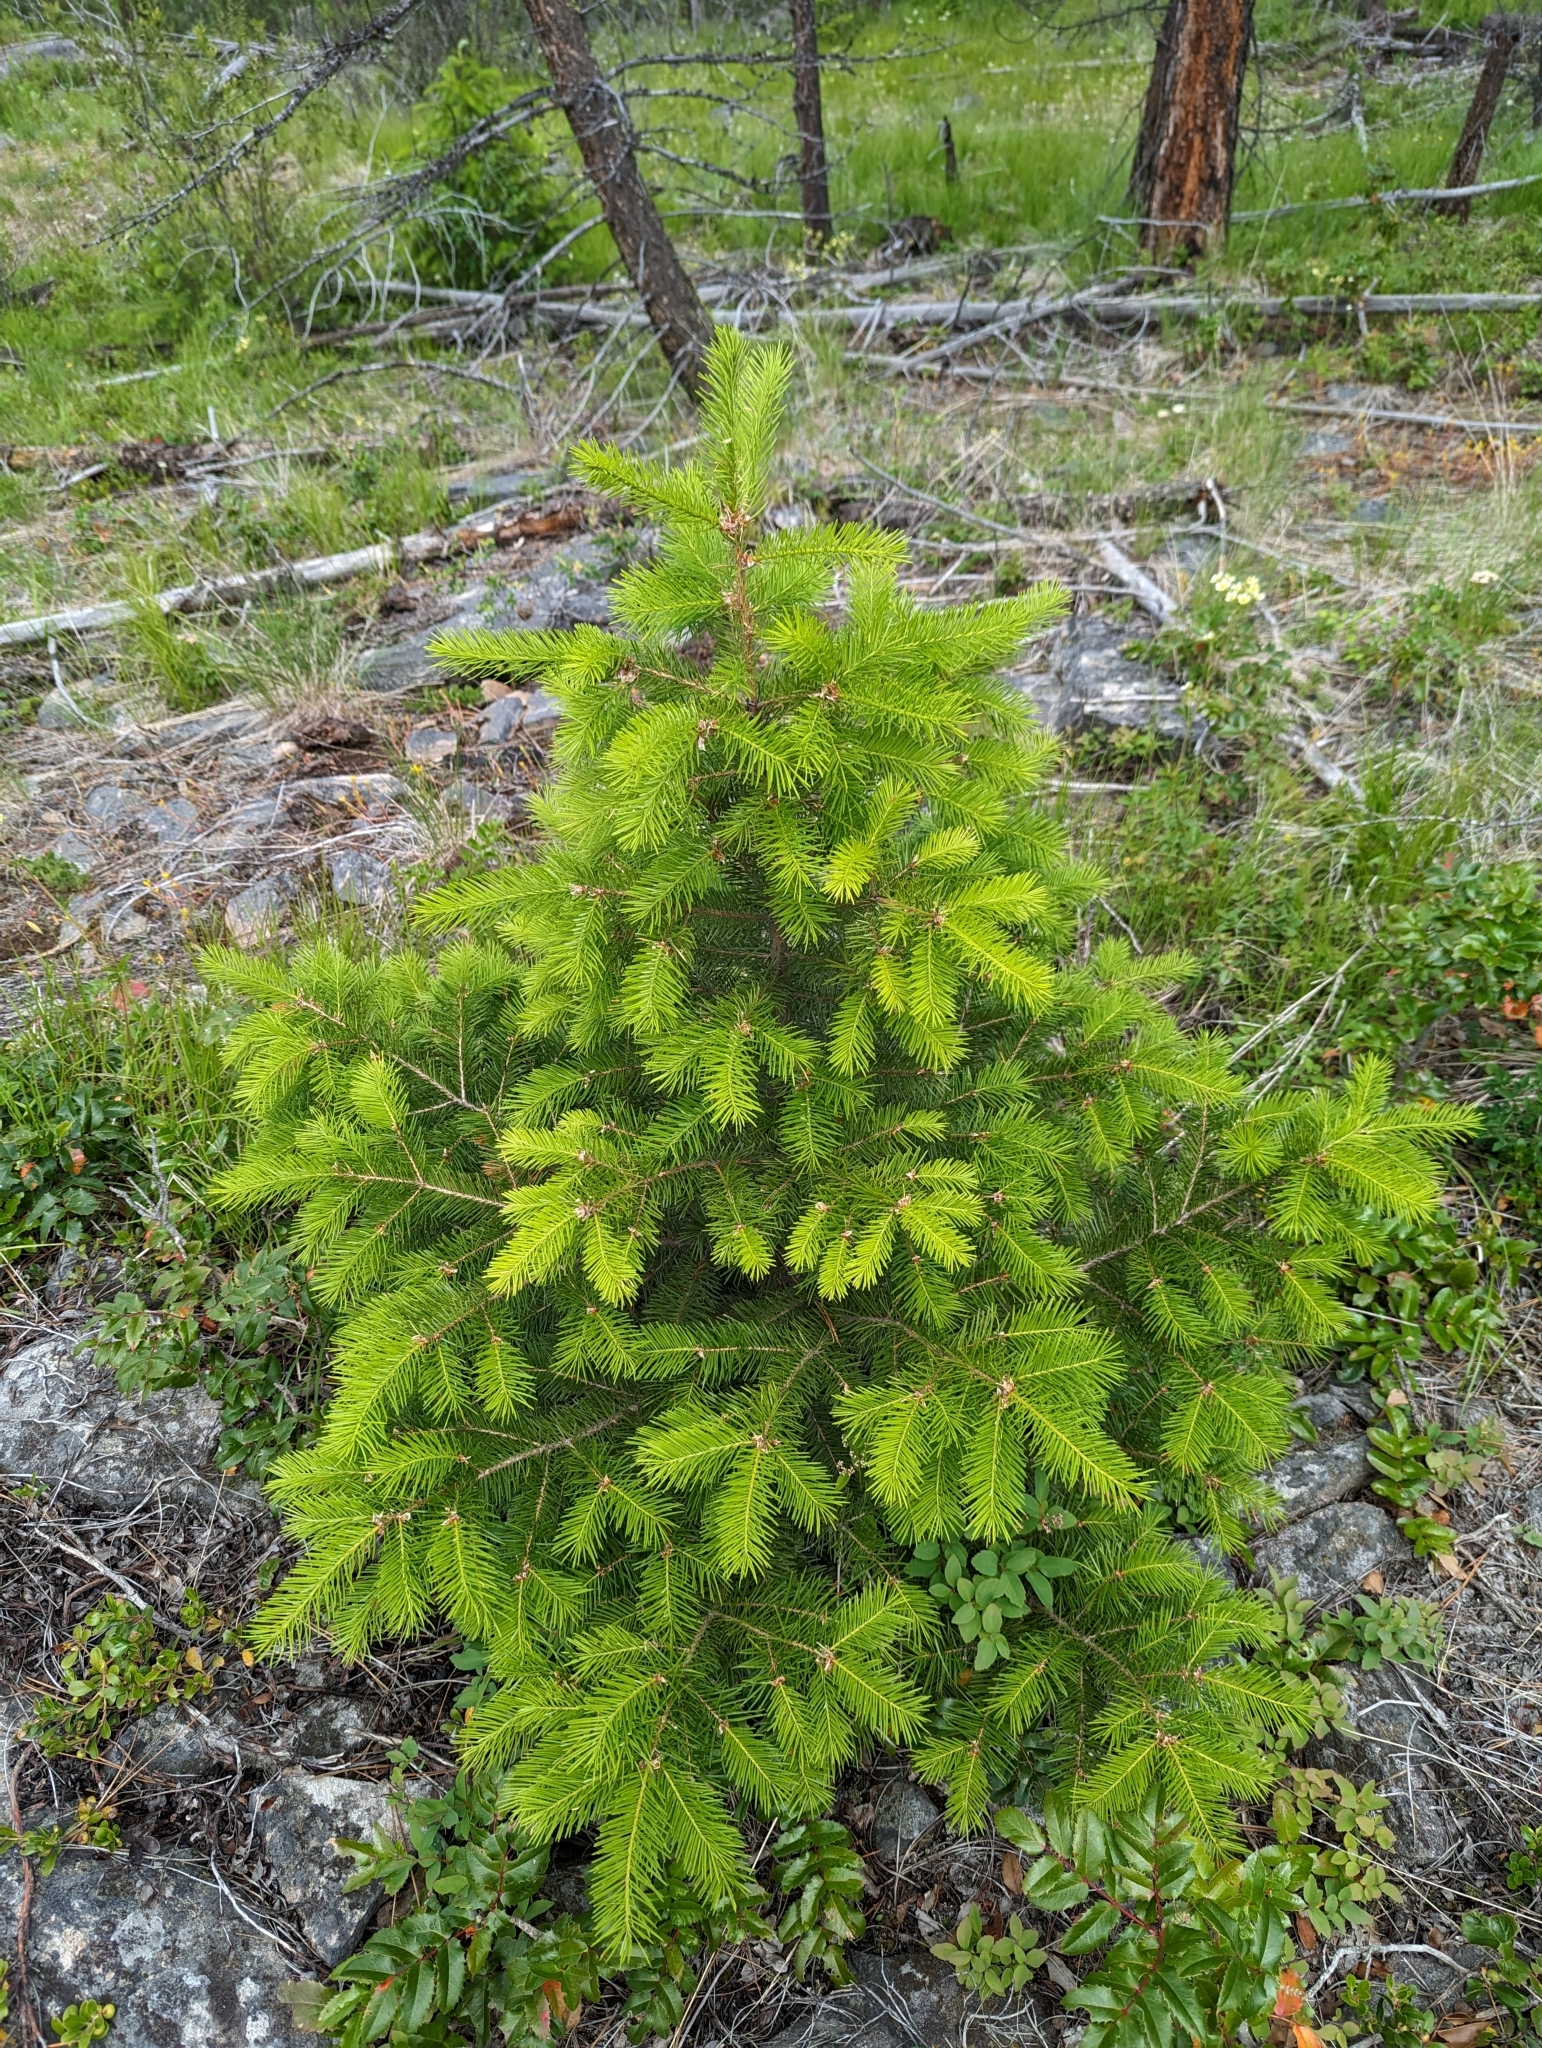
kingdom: Plantae
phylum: Tracheophyta
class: Pinopsida
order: Pinales
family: Pinaceae
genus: Pseudotsuga
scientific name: Pseudotsuga menziesii
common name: Douglas fir
